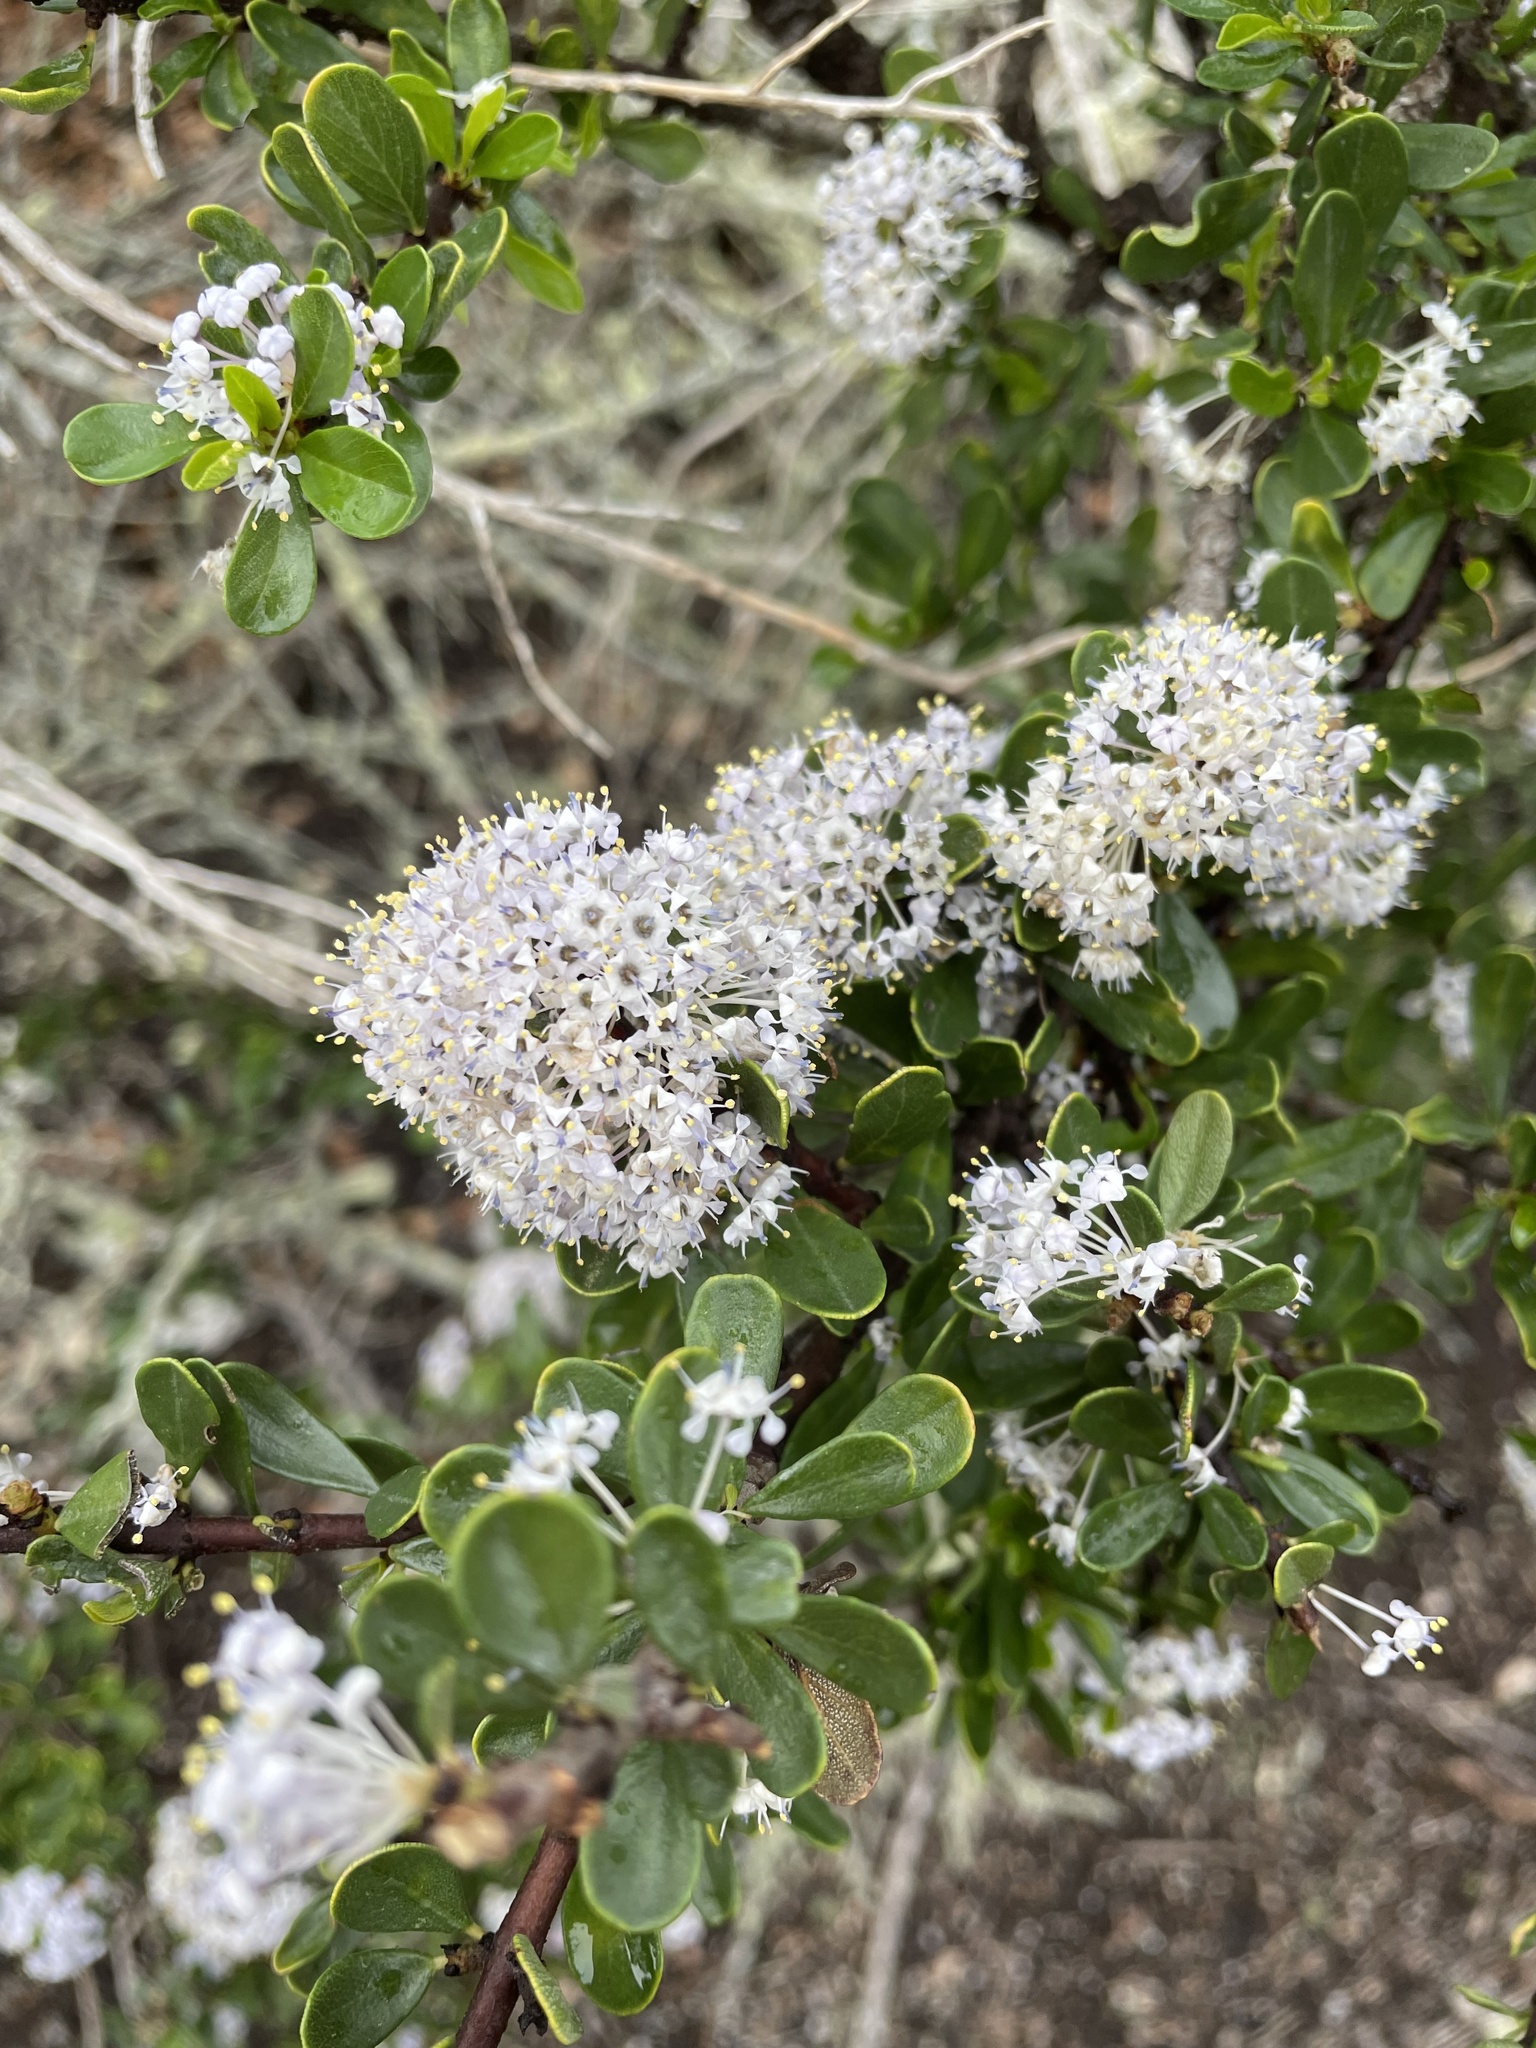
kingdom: Plantae
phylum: Tracheophyta
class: Magnoliopsida
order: Rosales
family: Rhamnaceae
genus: Ceanothus
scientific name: Ceanothus cuneatus
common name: Cuneate ceanothus
